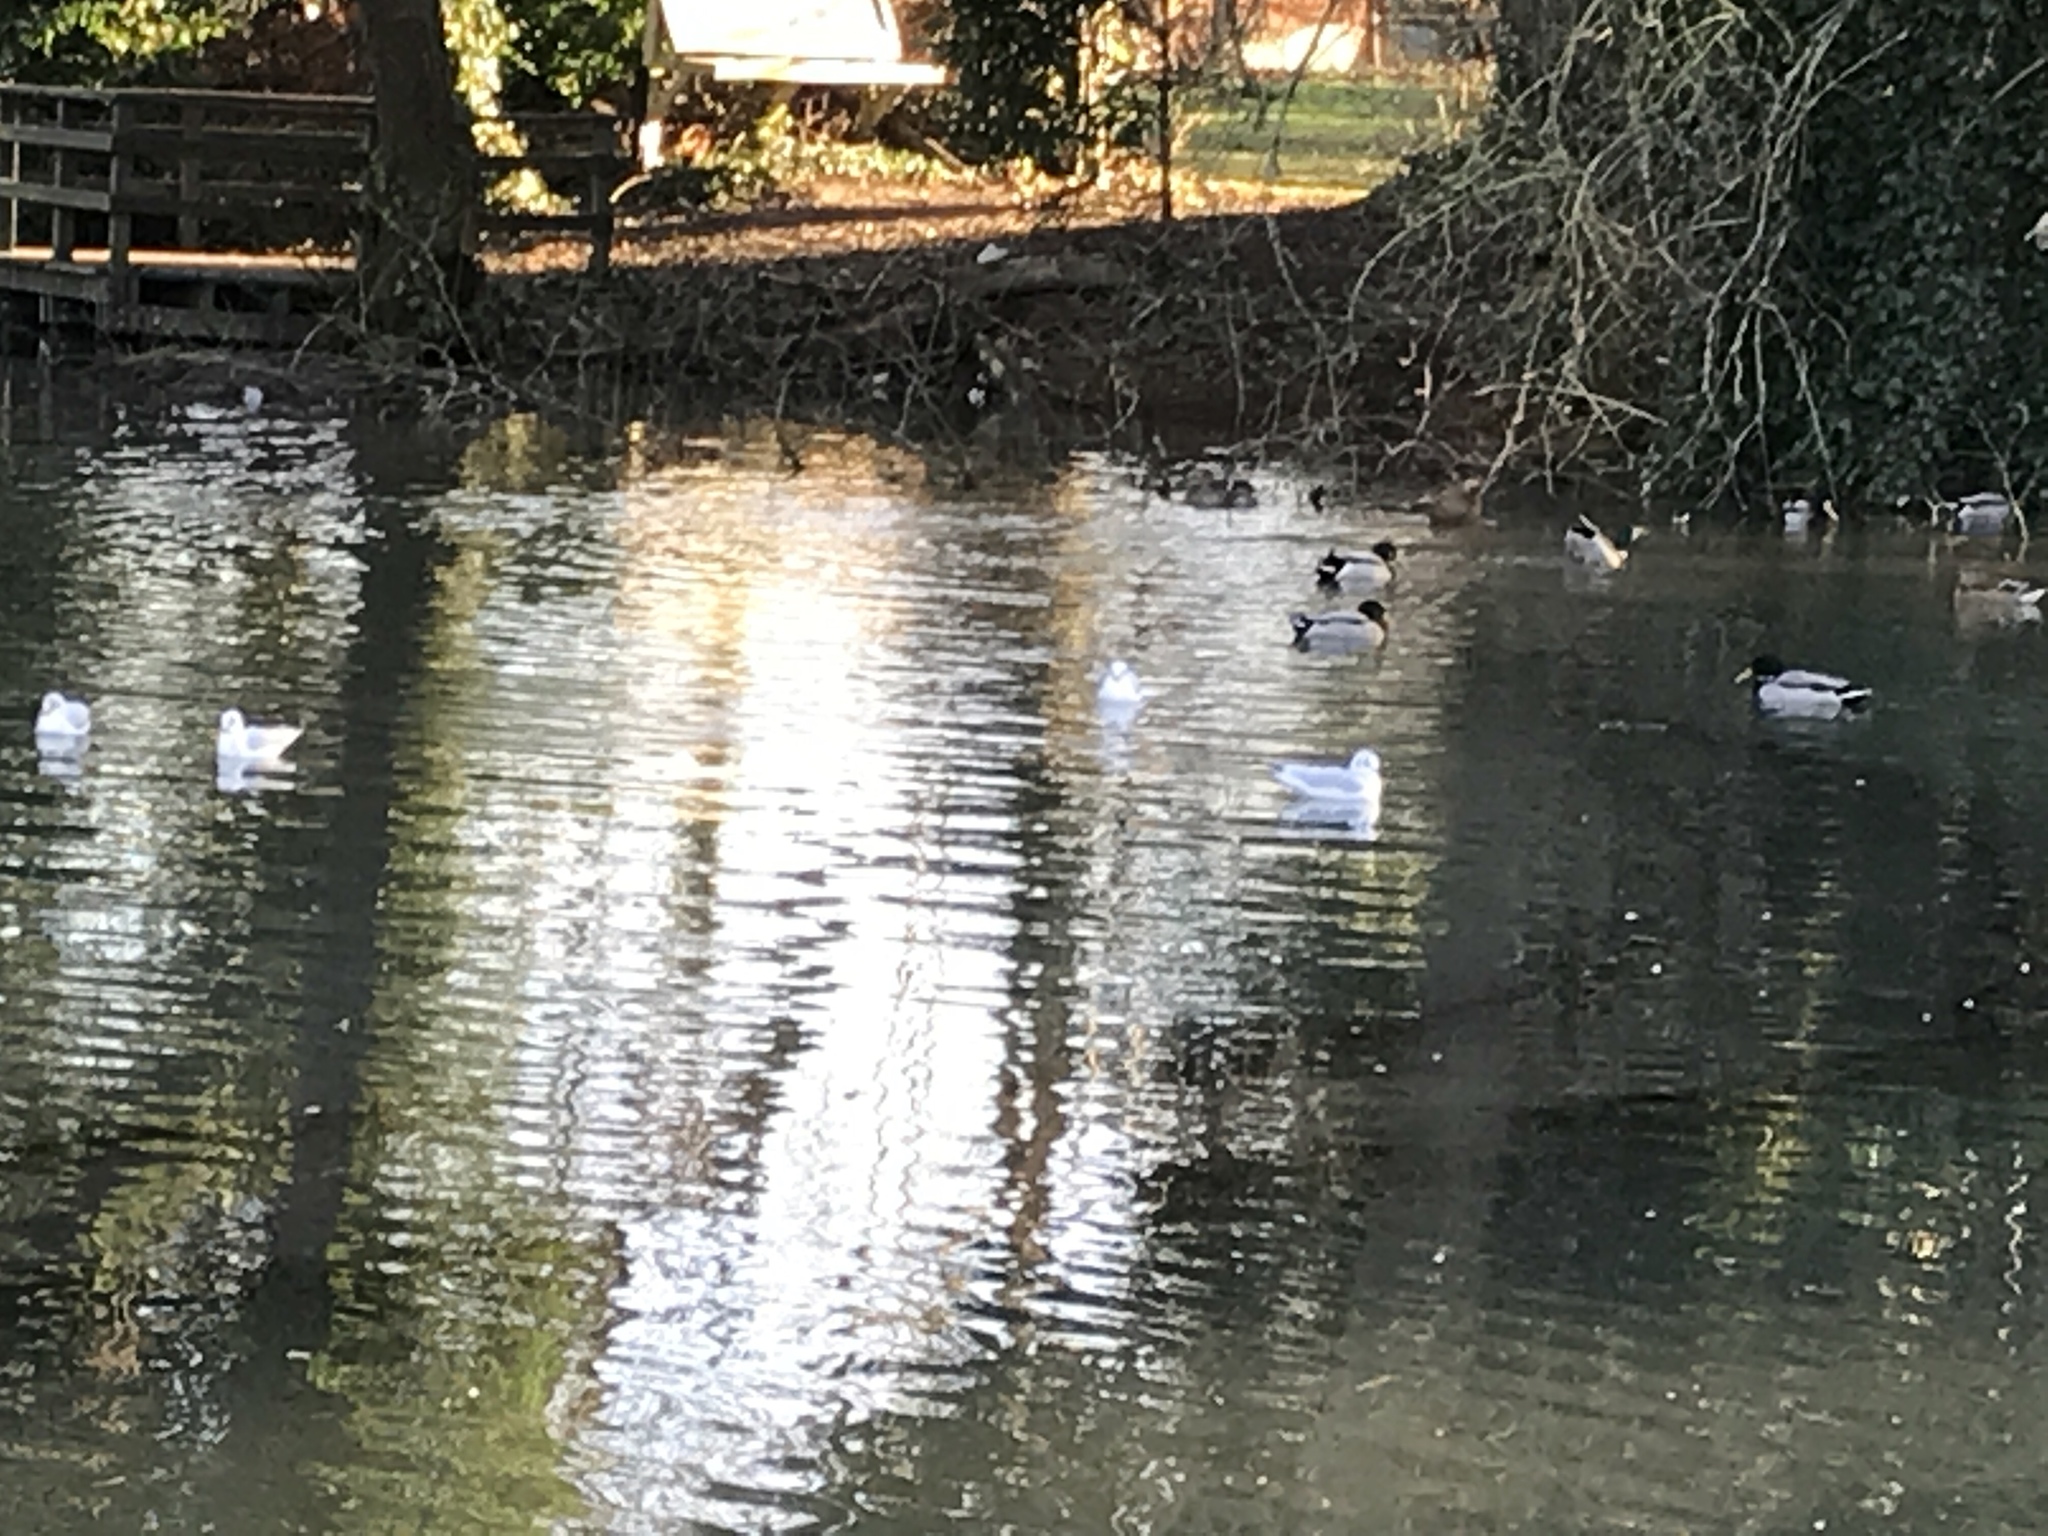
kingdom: Animalia
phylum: Chordata
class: Aves
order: Charadriiformes
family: Laridae
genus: Chroicocephalus
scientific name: Chroicocephalus ridibundus
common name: Black-headed gull
